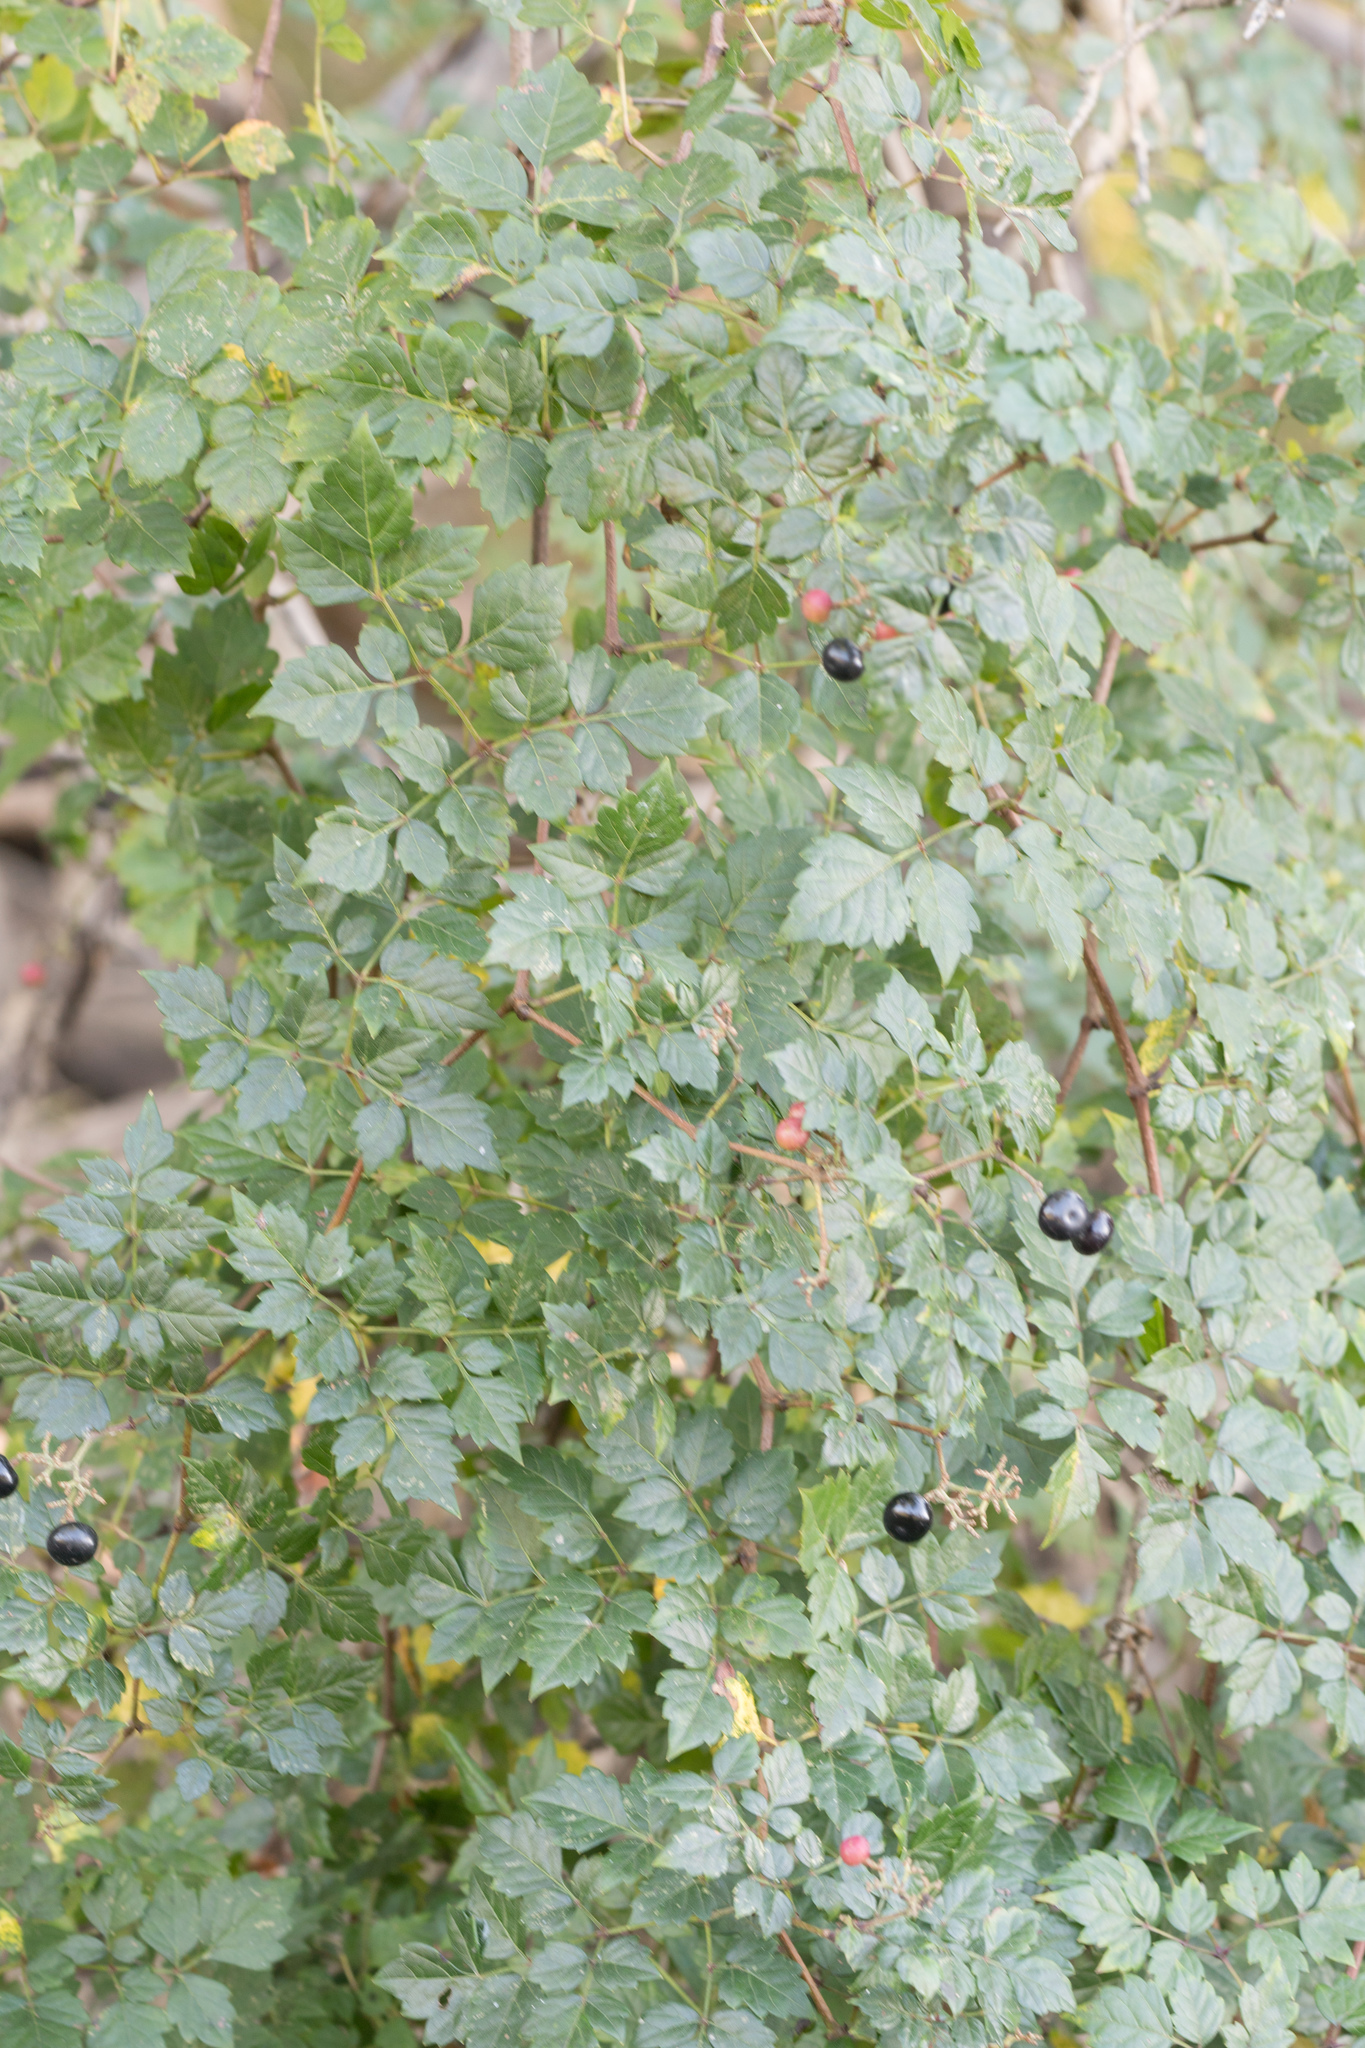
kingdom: Plantae
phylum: Tracheophyta
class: Magnoliopsida
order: Vitales
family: Vitaceae
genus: Nekemias
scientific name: Nekemias arborea
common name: Peppervine
